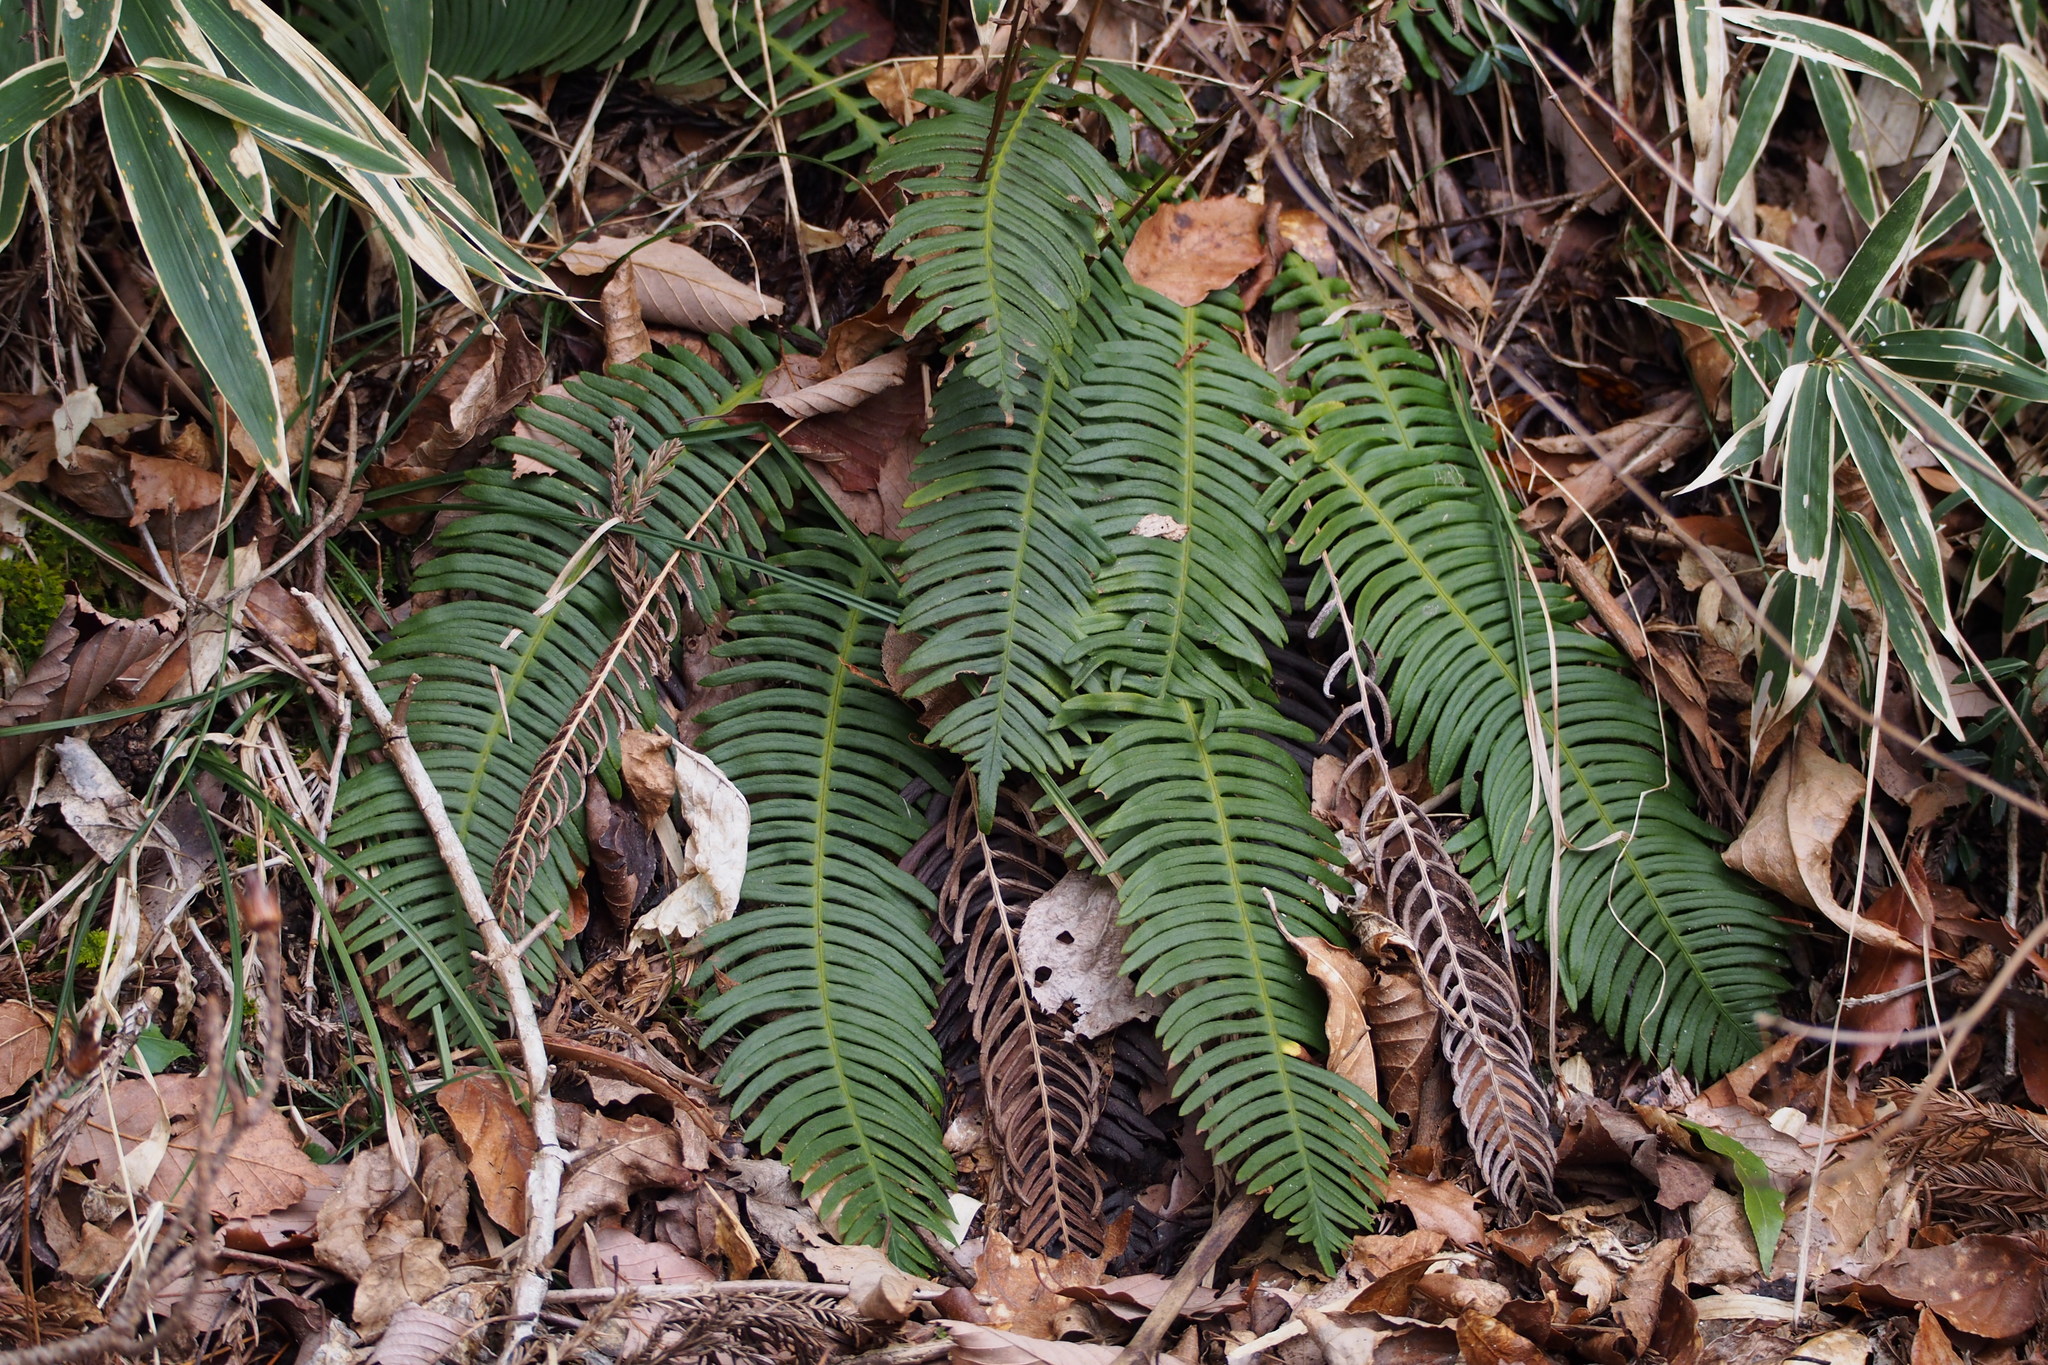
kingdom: Plantae
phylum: Tracheophyta
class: Polypodiopsida
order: Polypodiales
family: Blechnaceae
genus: Spicantopsis
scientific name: Spicantopsis niponica
